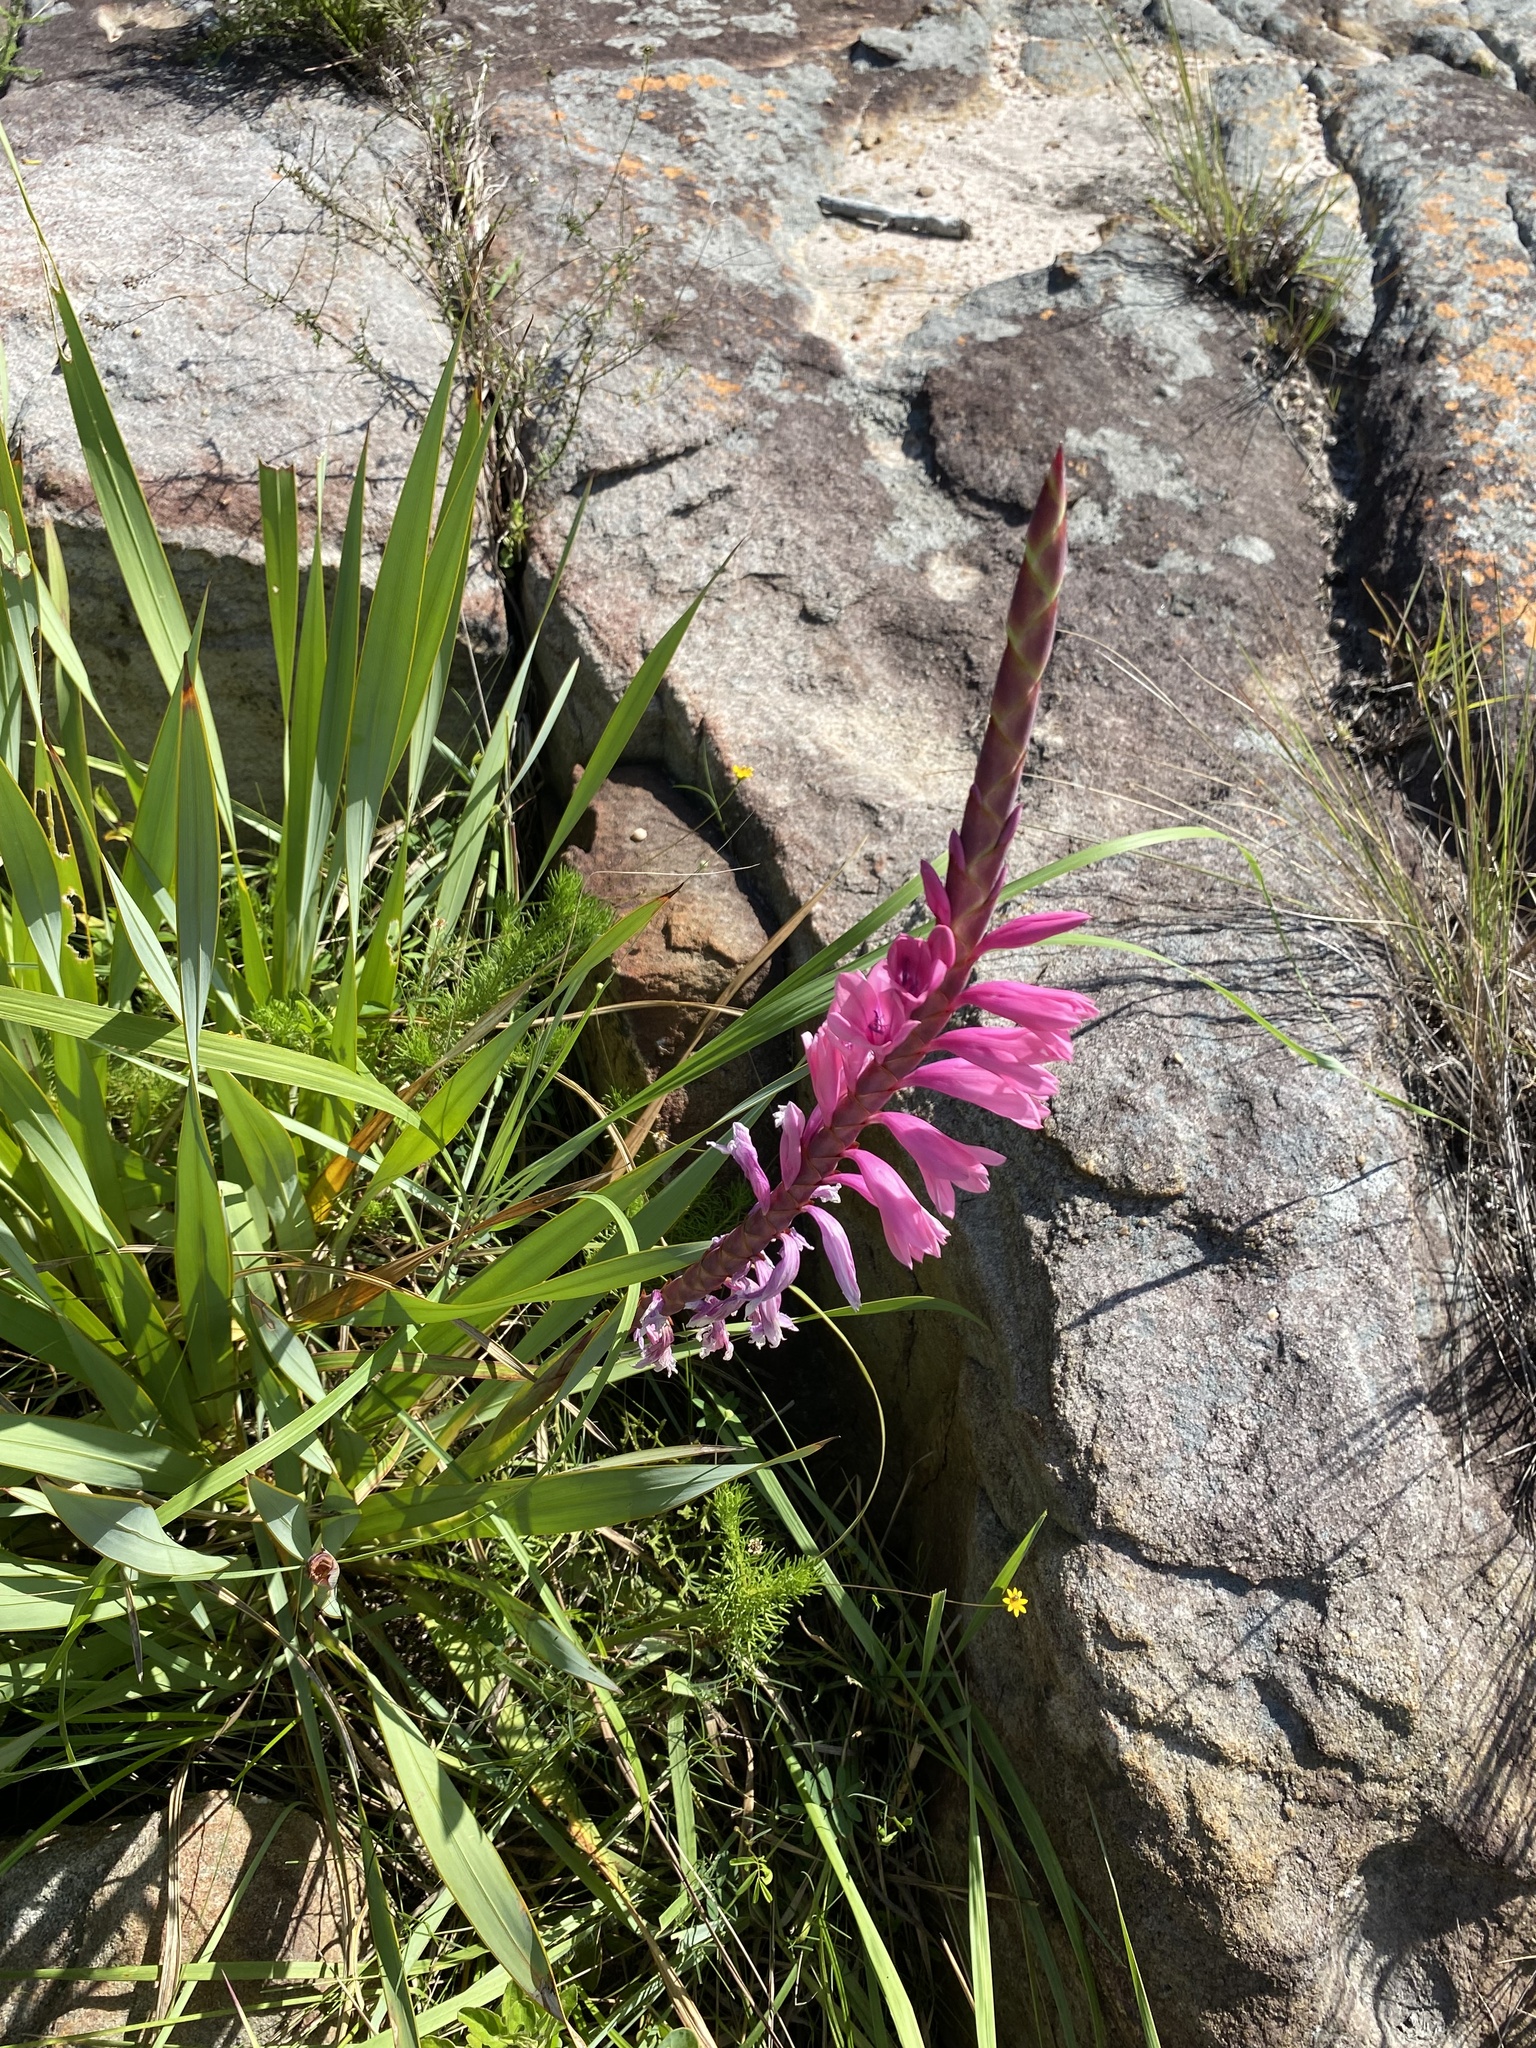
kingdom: Plantae
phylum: Tracheophyta
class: Liliopsida
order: Asparagales
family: Iridaceae
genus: Watsonia
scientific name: Watsonia densiflora
